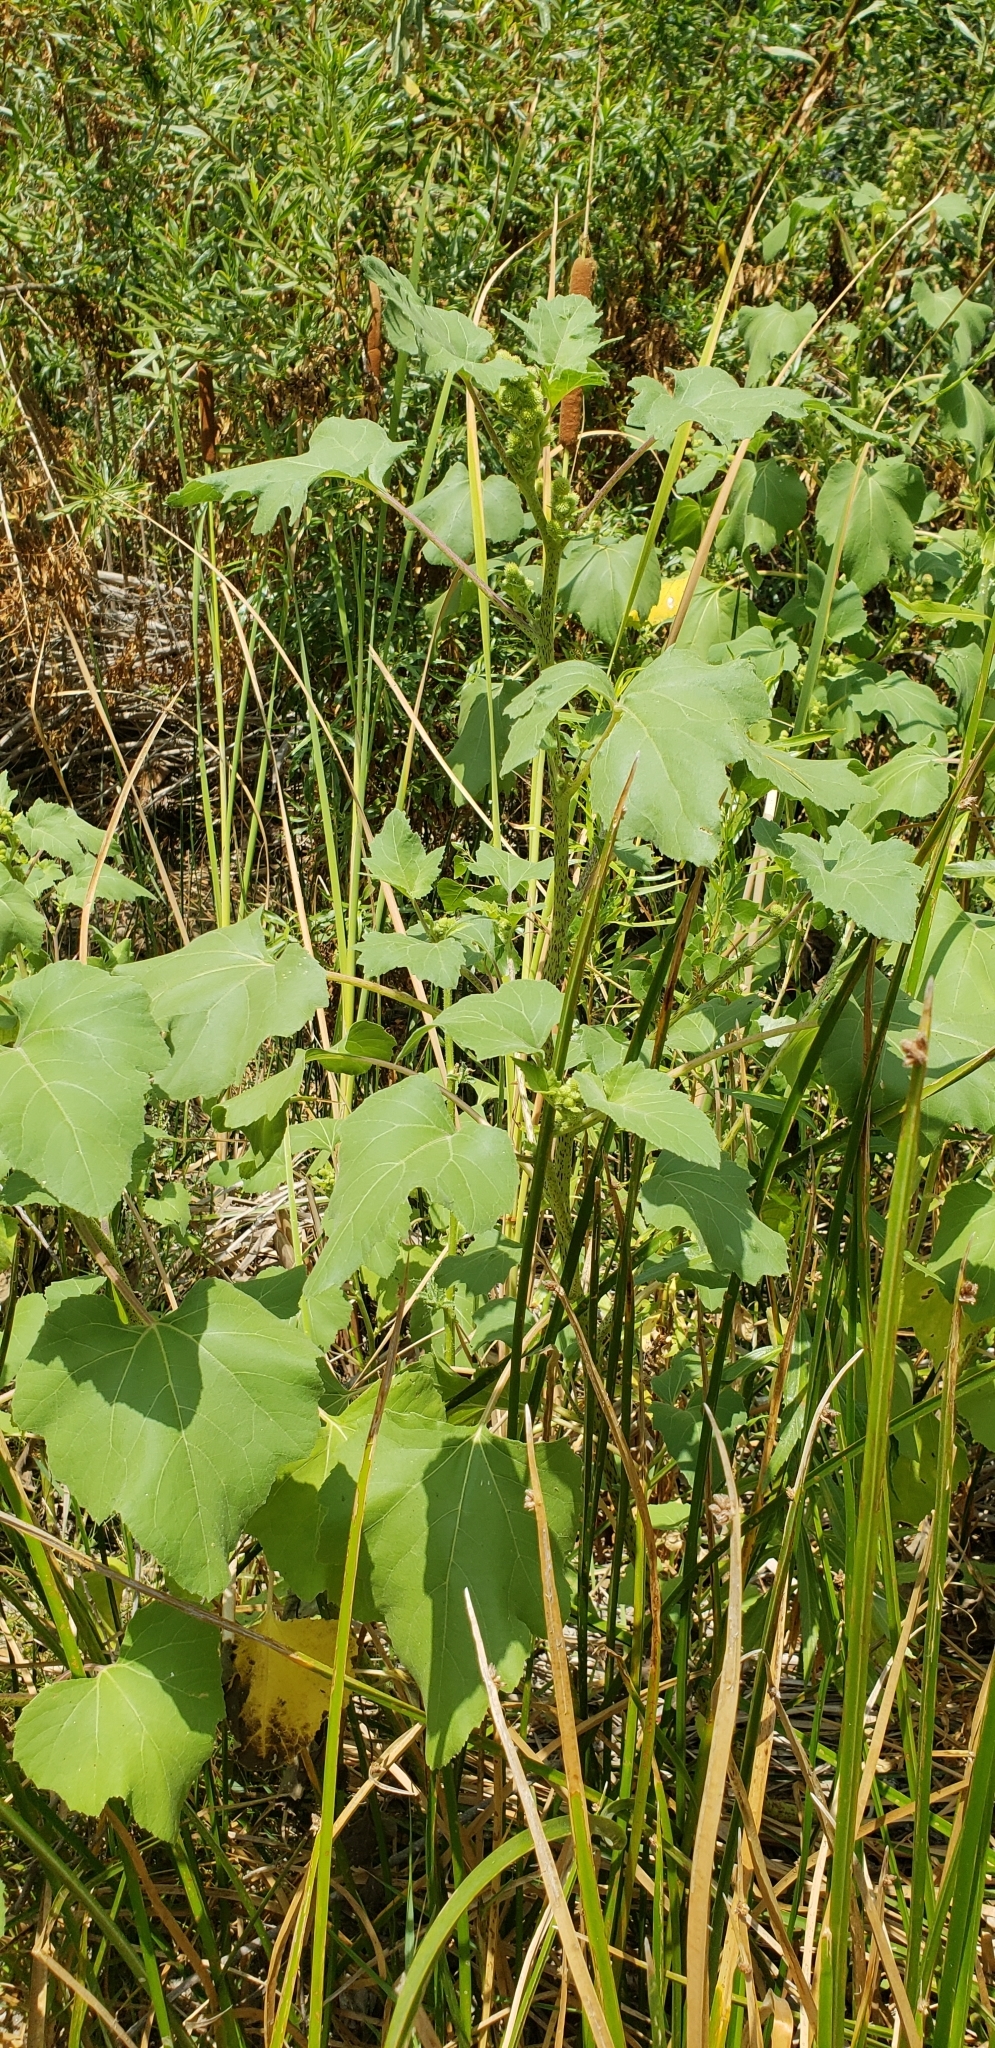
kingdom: Plantae
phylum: Tracheophyta
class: Magnoliopsida
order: Asterales
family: Asteraceae
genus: Xanthium
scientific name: Xanthium strumarium
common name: Rough cocklebur
